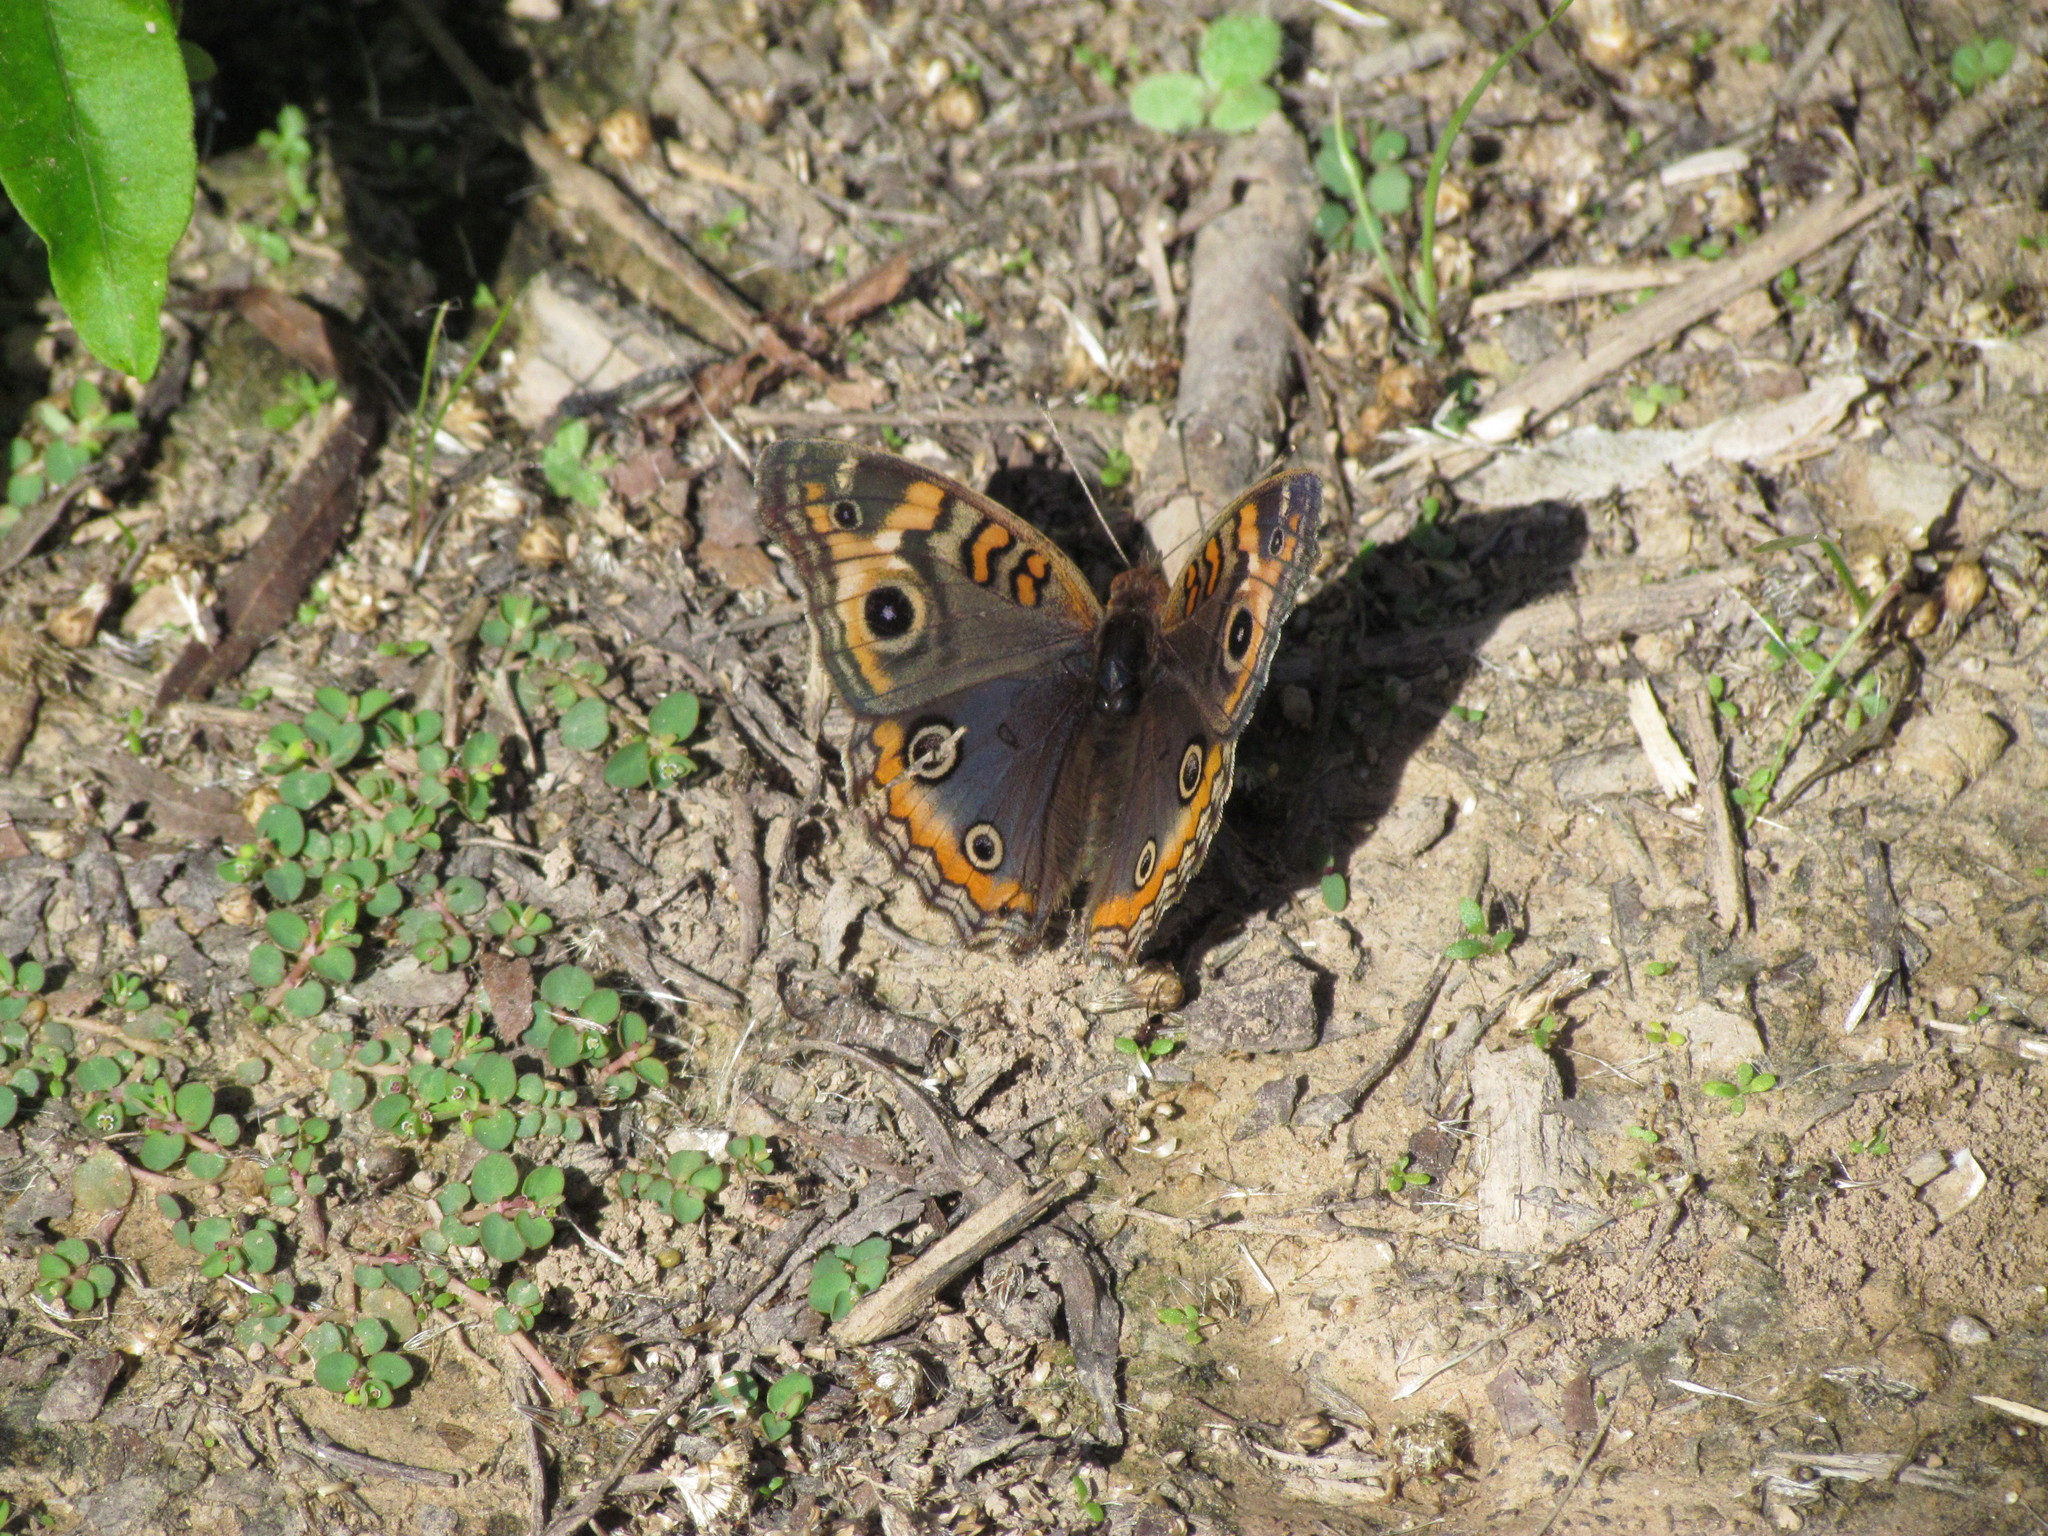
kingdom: Animalia
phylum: Arthropoda
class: Insecta
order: Lepidoptera
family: Nymphalidae
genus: Junonia
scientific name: Junonia lavinia
